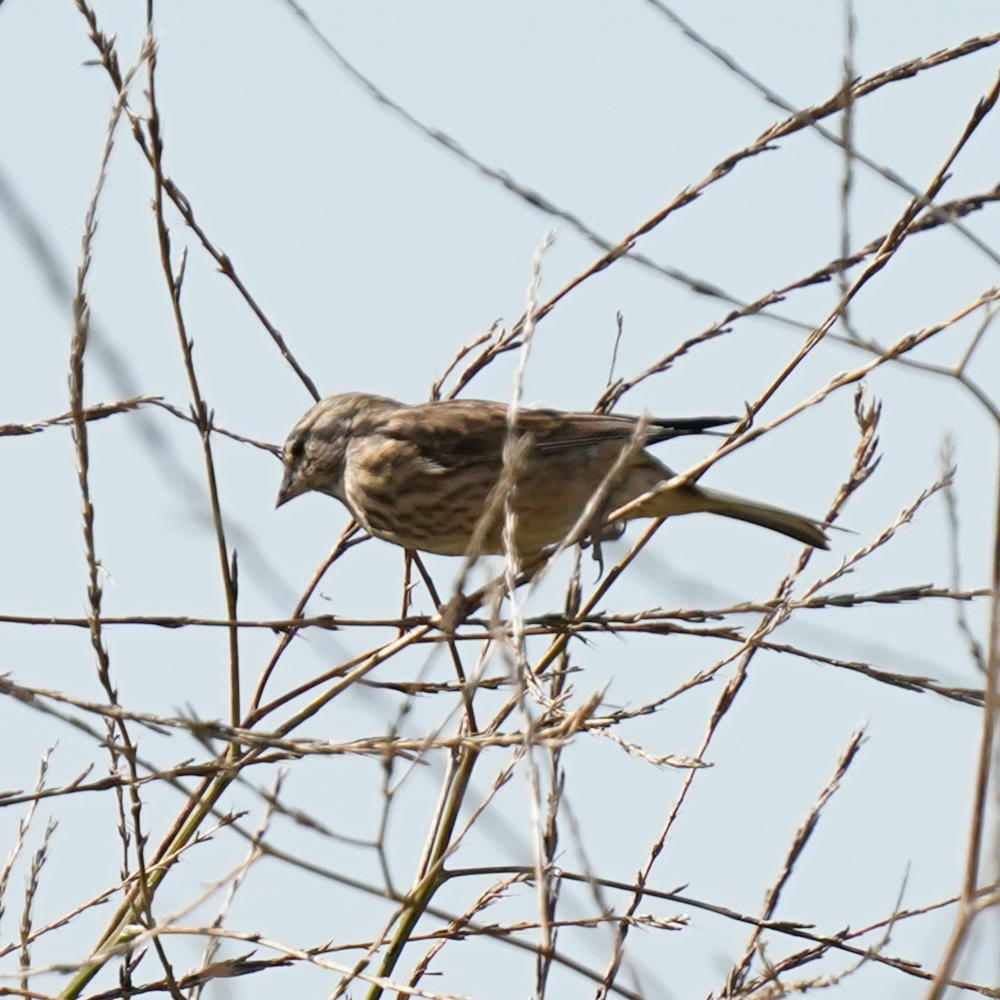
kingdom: Animalia
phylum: Chordata
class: Aves
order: Passeriformes
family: Fringillidae
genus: Linaria
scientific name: Linaria cannabina
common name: Common linnet
